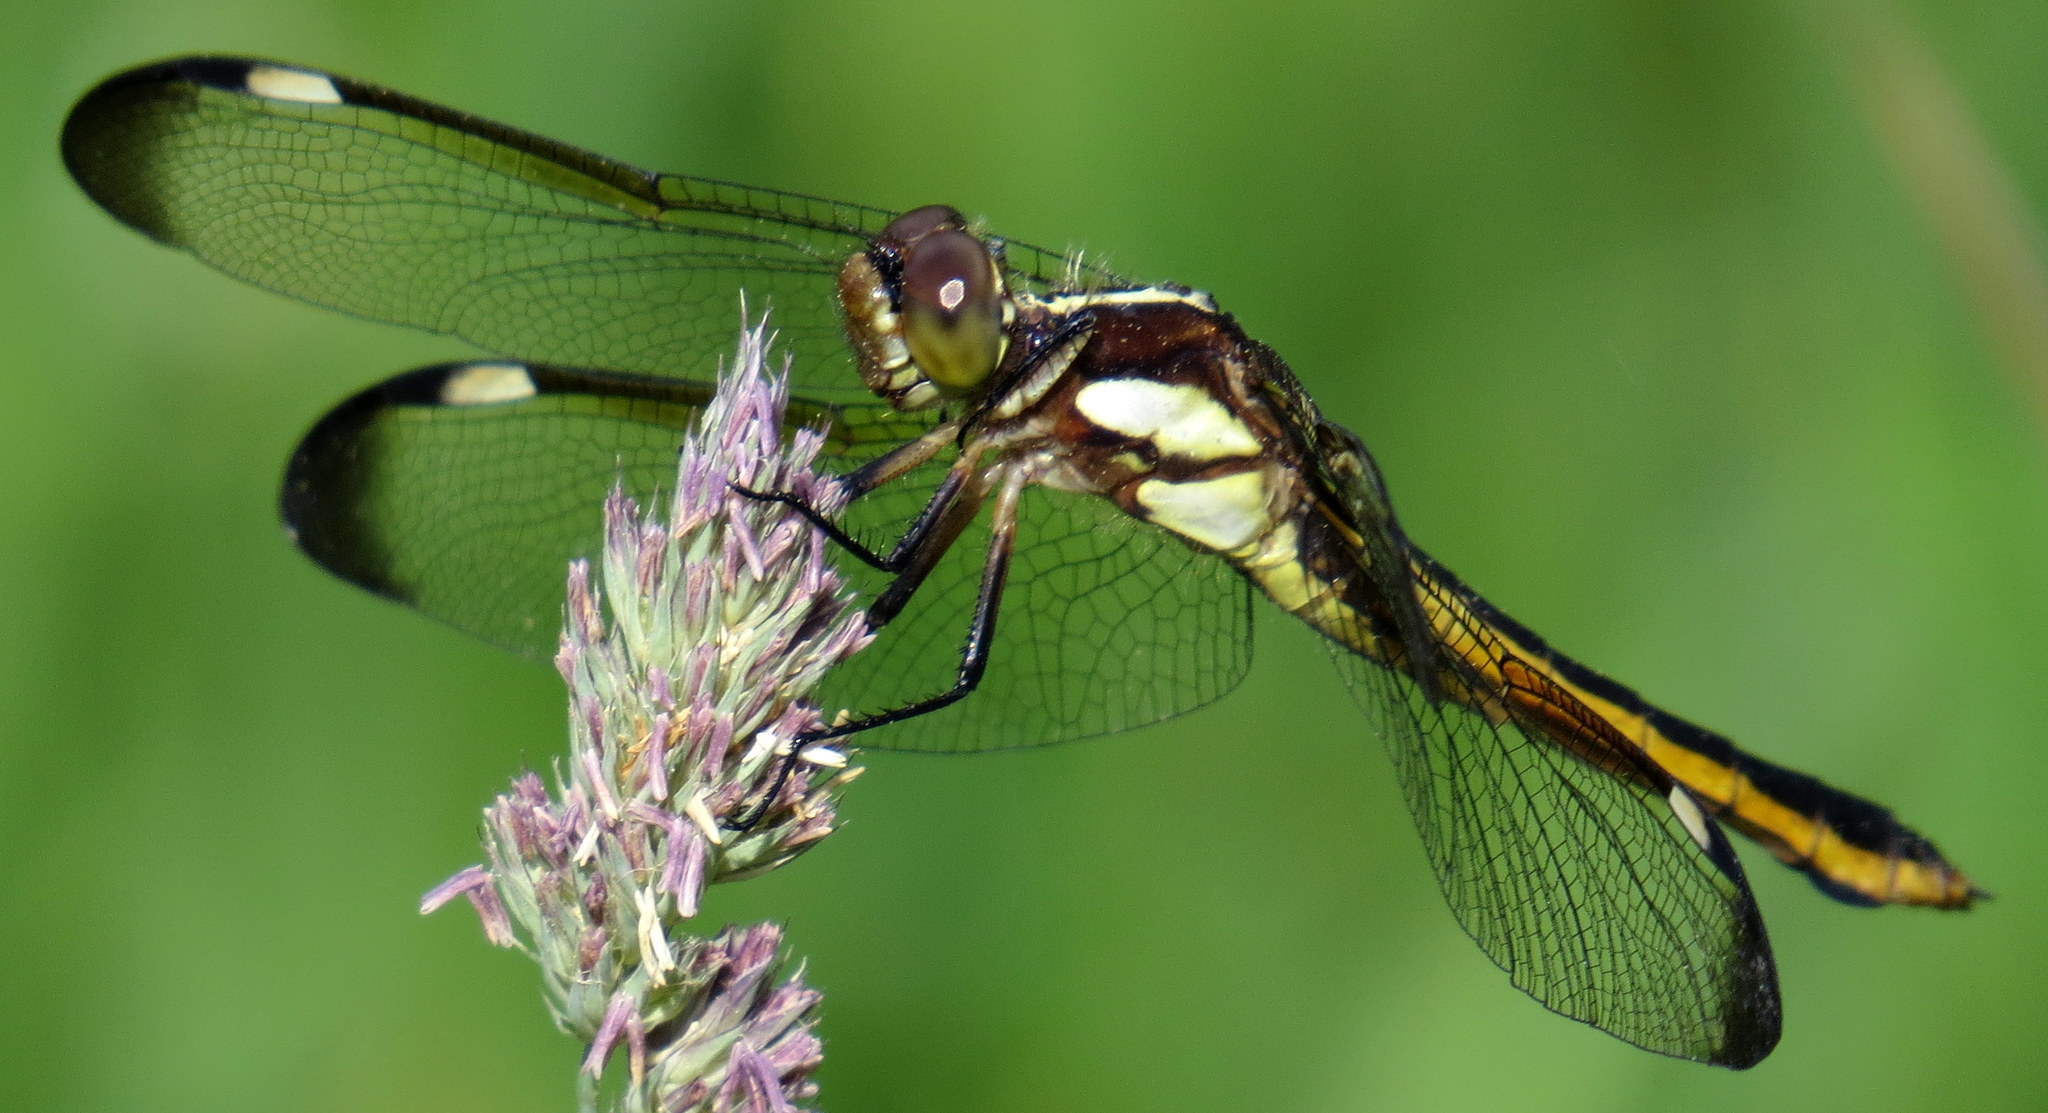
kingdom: Animalia
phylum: Arthropoda
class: Insecta
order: Odonata
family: Libellulidae
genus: Libellula
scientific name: Libellula cyanea
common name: Spangled skimmer
